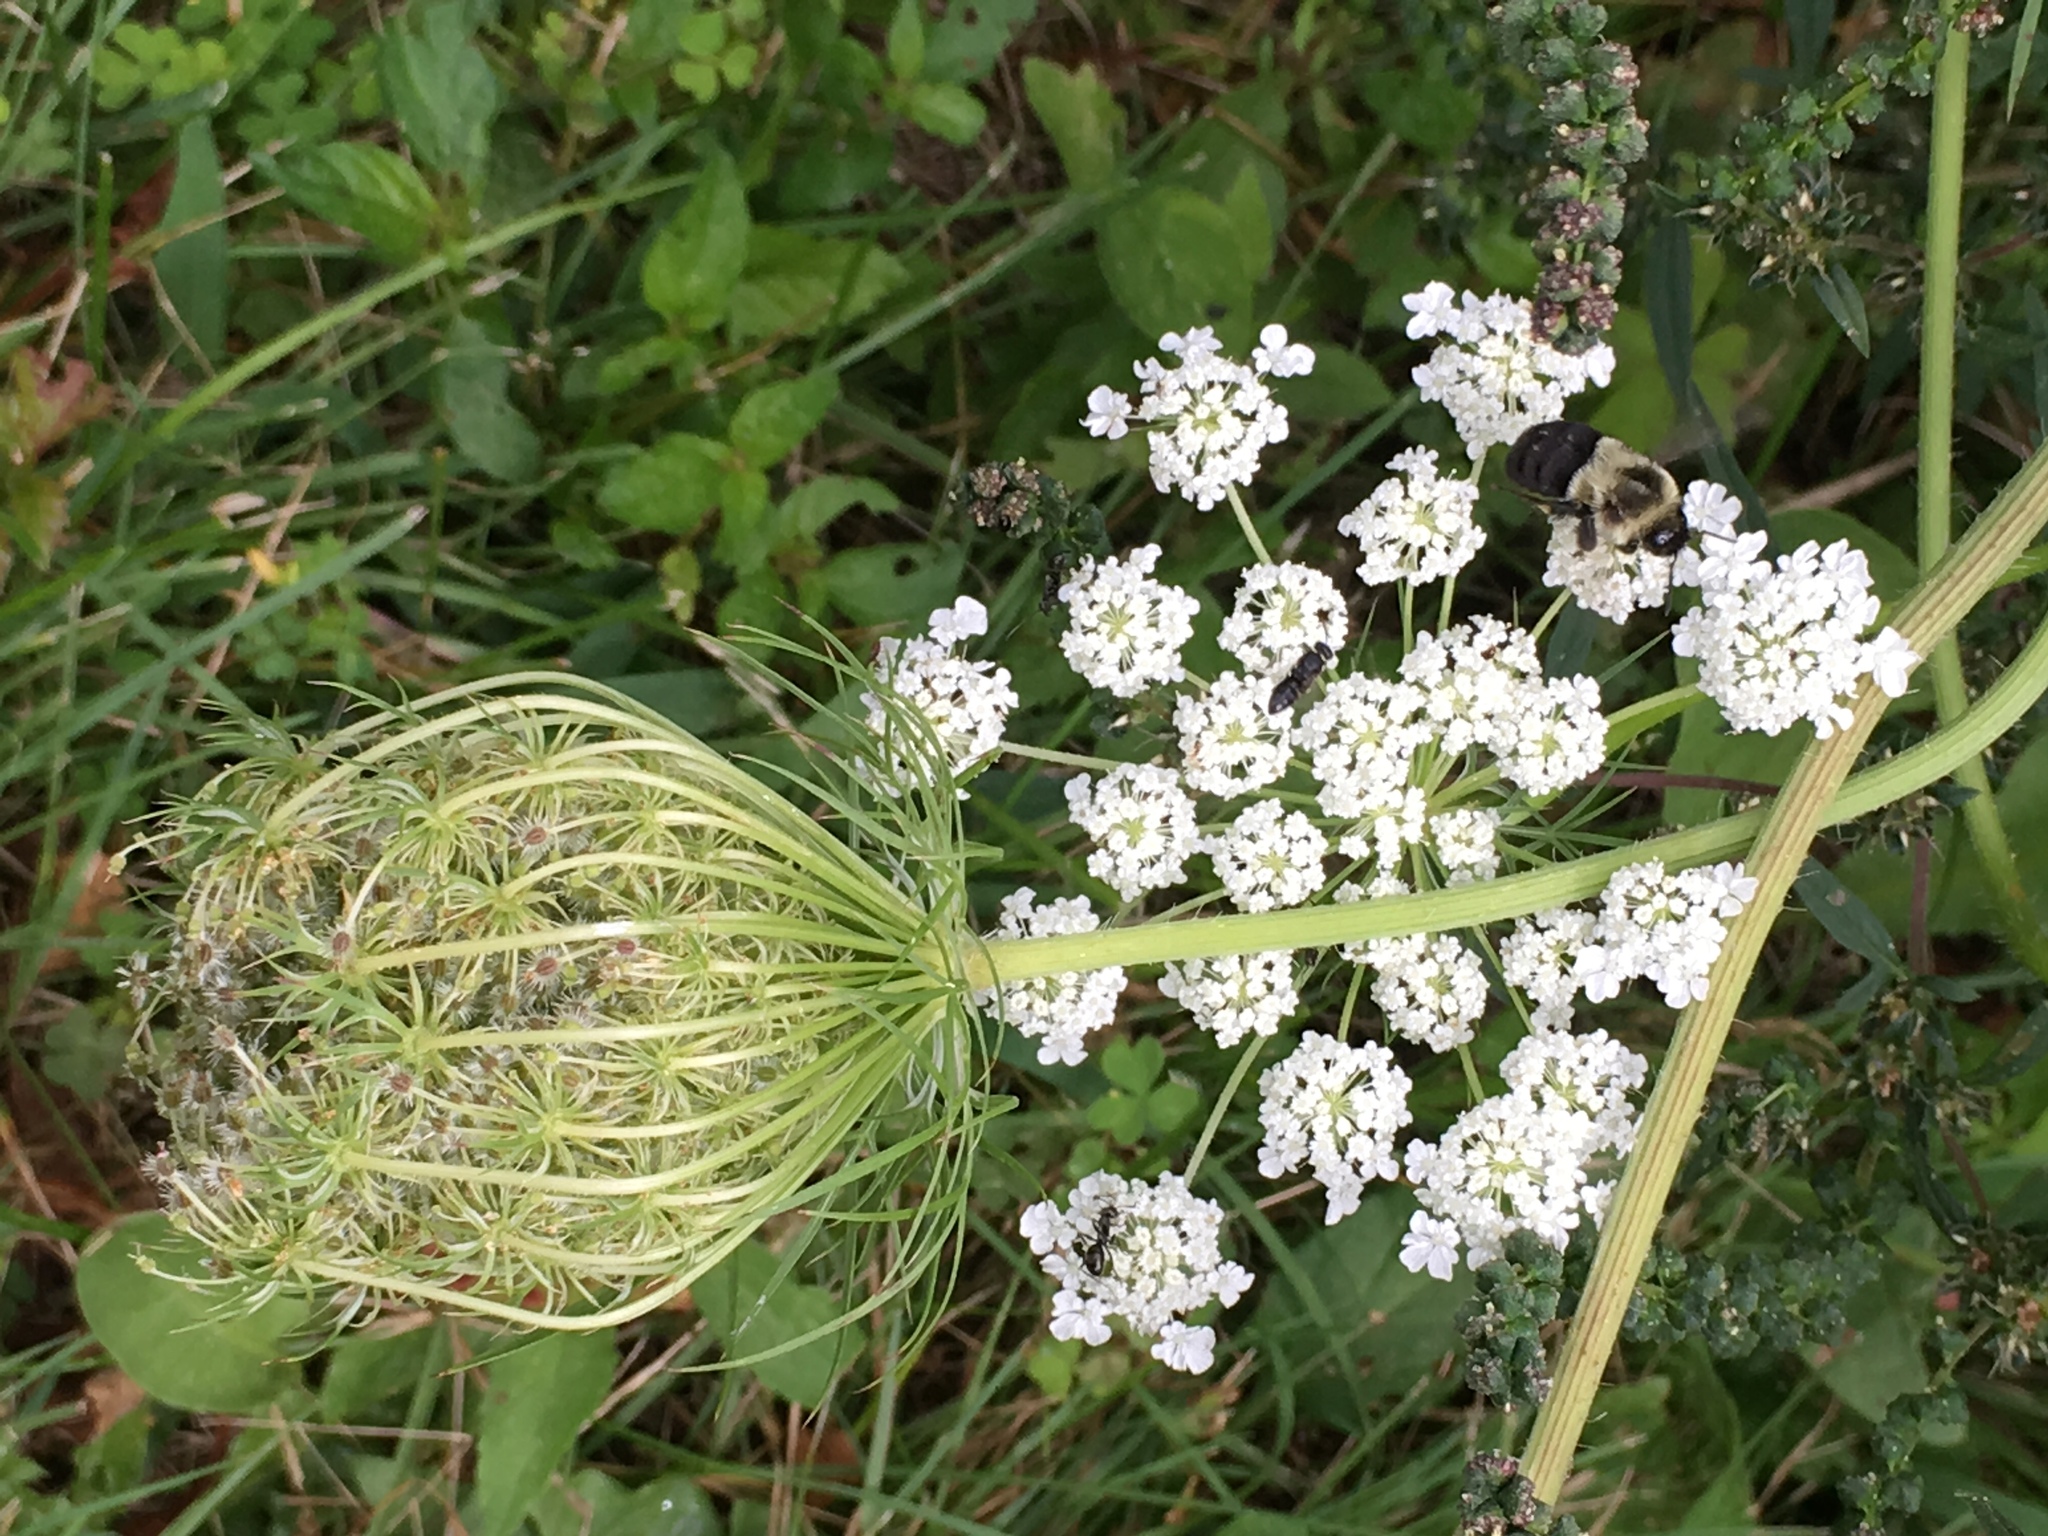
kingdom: Plantae
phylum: Tracheophyta
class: Magnoliopsida
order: Apiales
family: Apiaceae
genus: Daucus
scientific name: Daucus carota
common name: Wild carrot
